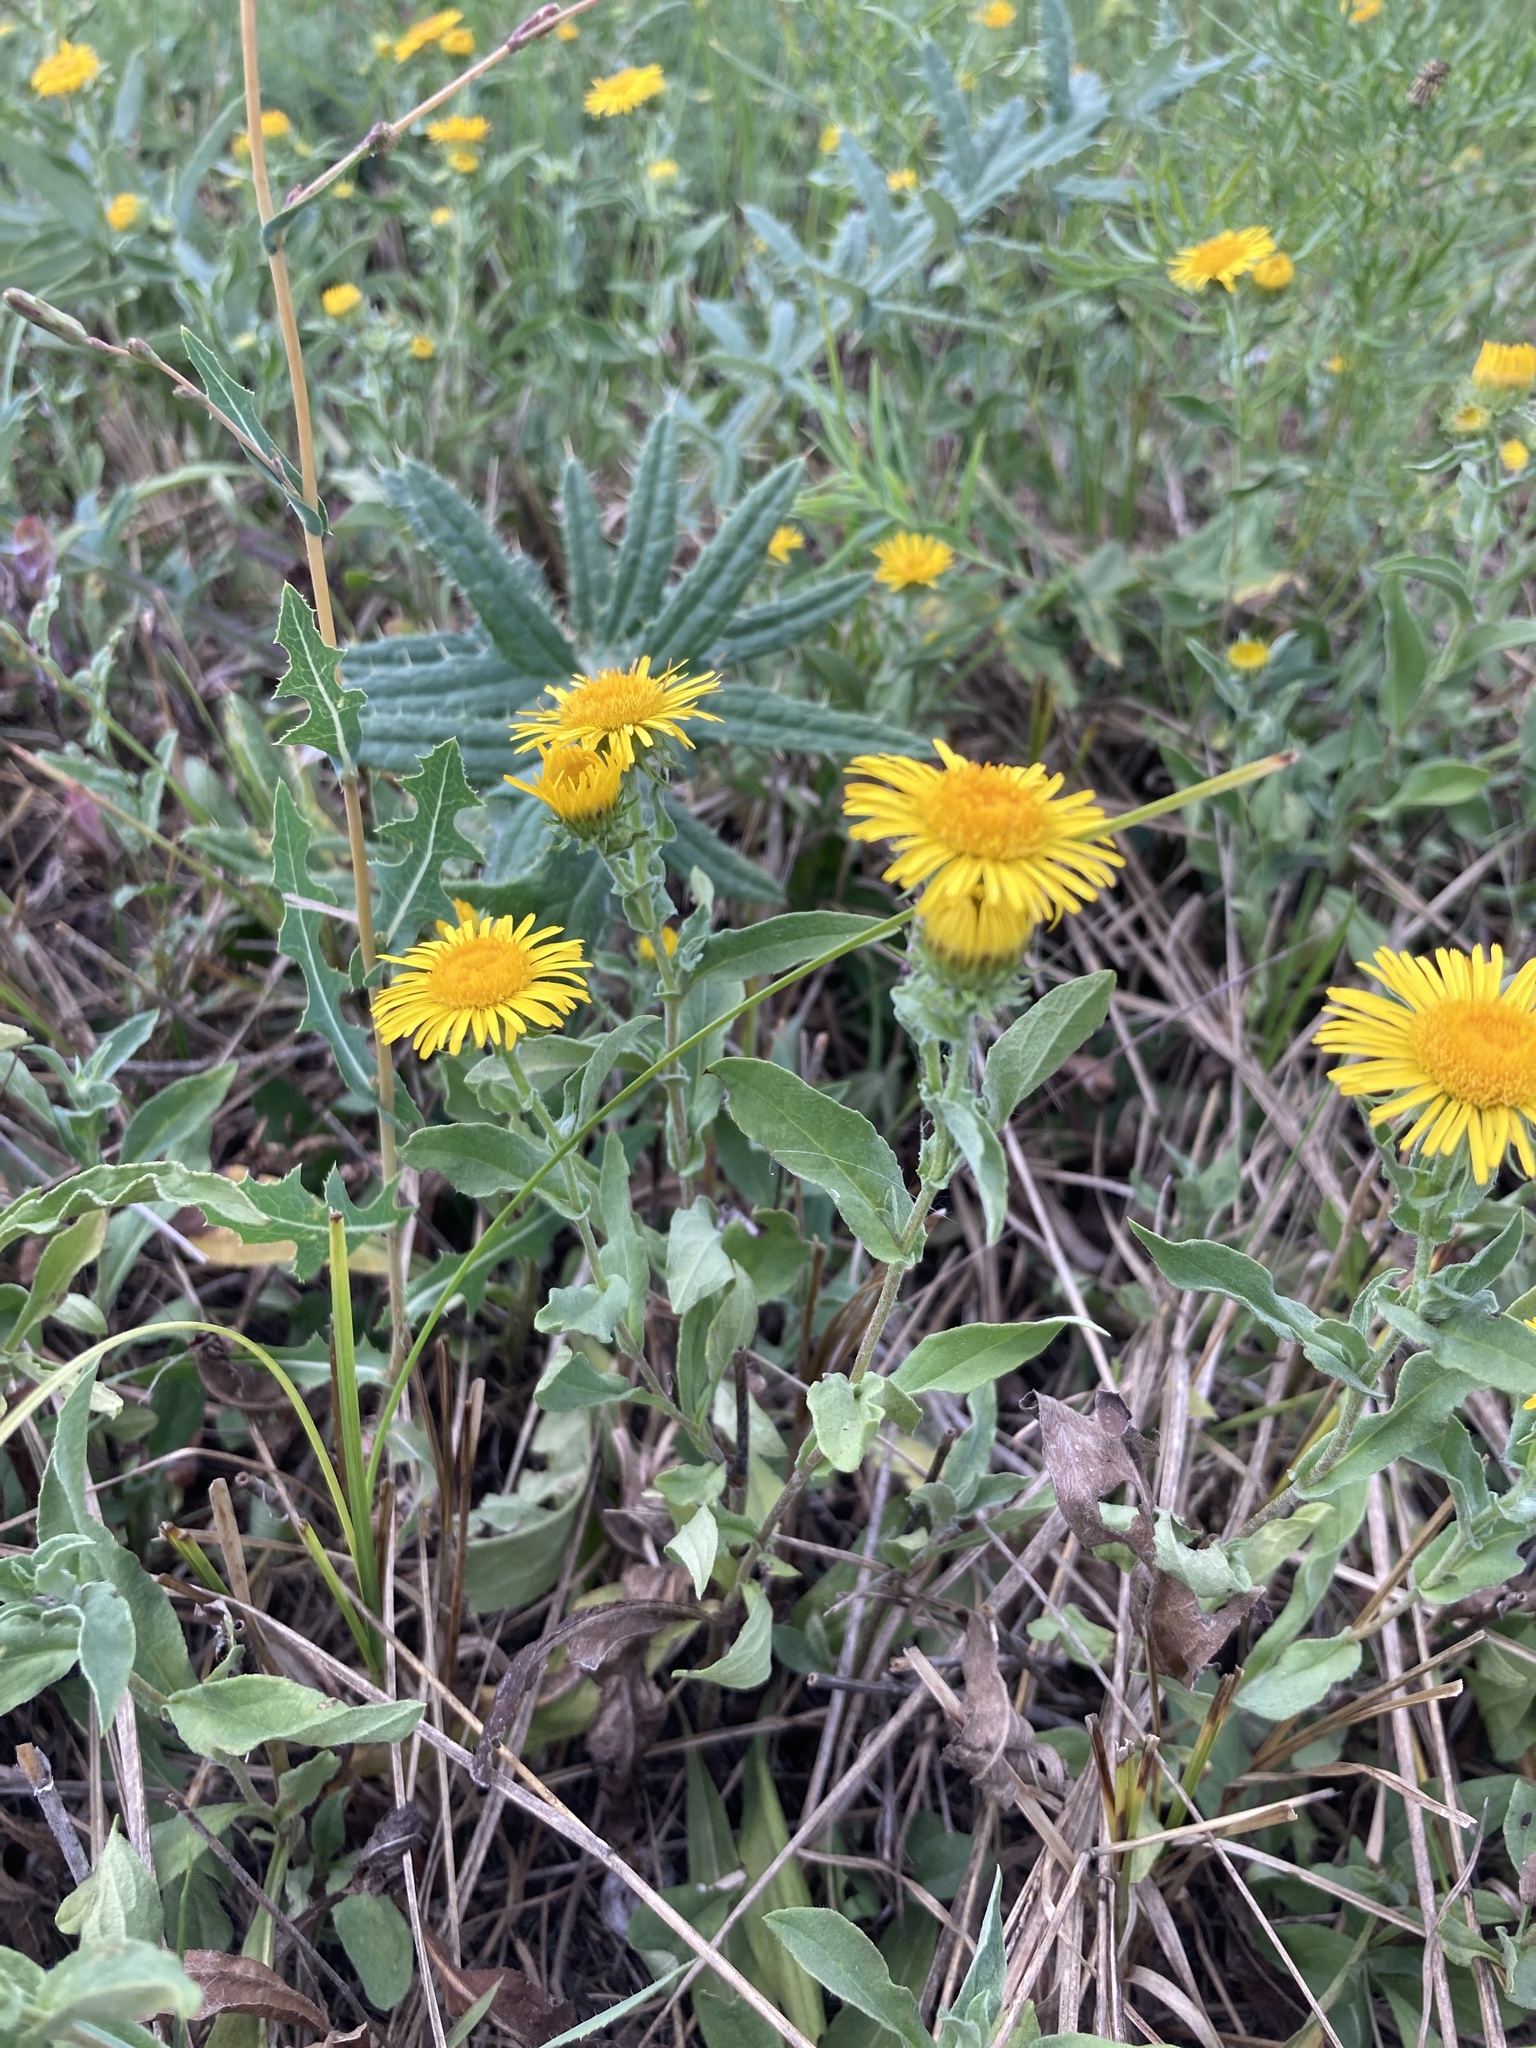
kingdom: Plantae
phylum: Tracheophyta
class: Magnoliopsida
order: Asterales
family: Asteraceae
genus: Pentanema
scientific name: Pentanema britannicum
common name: British elecampane
